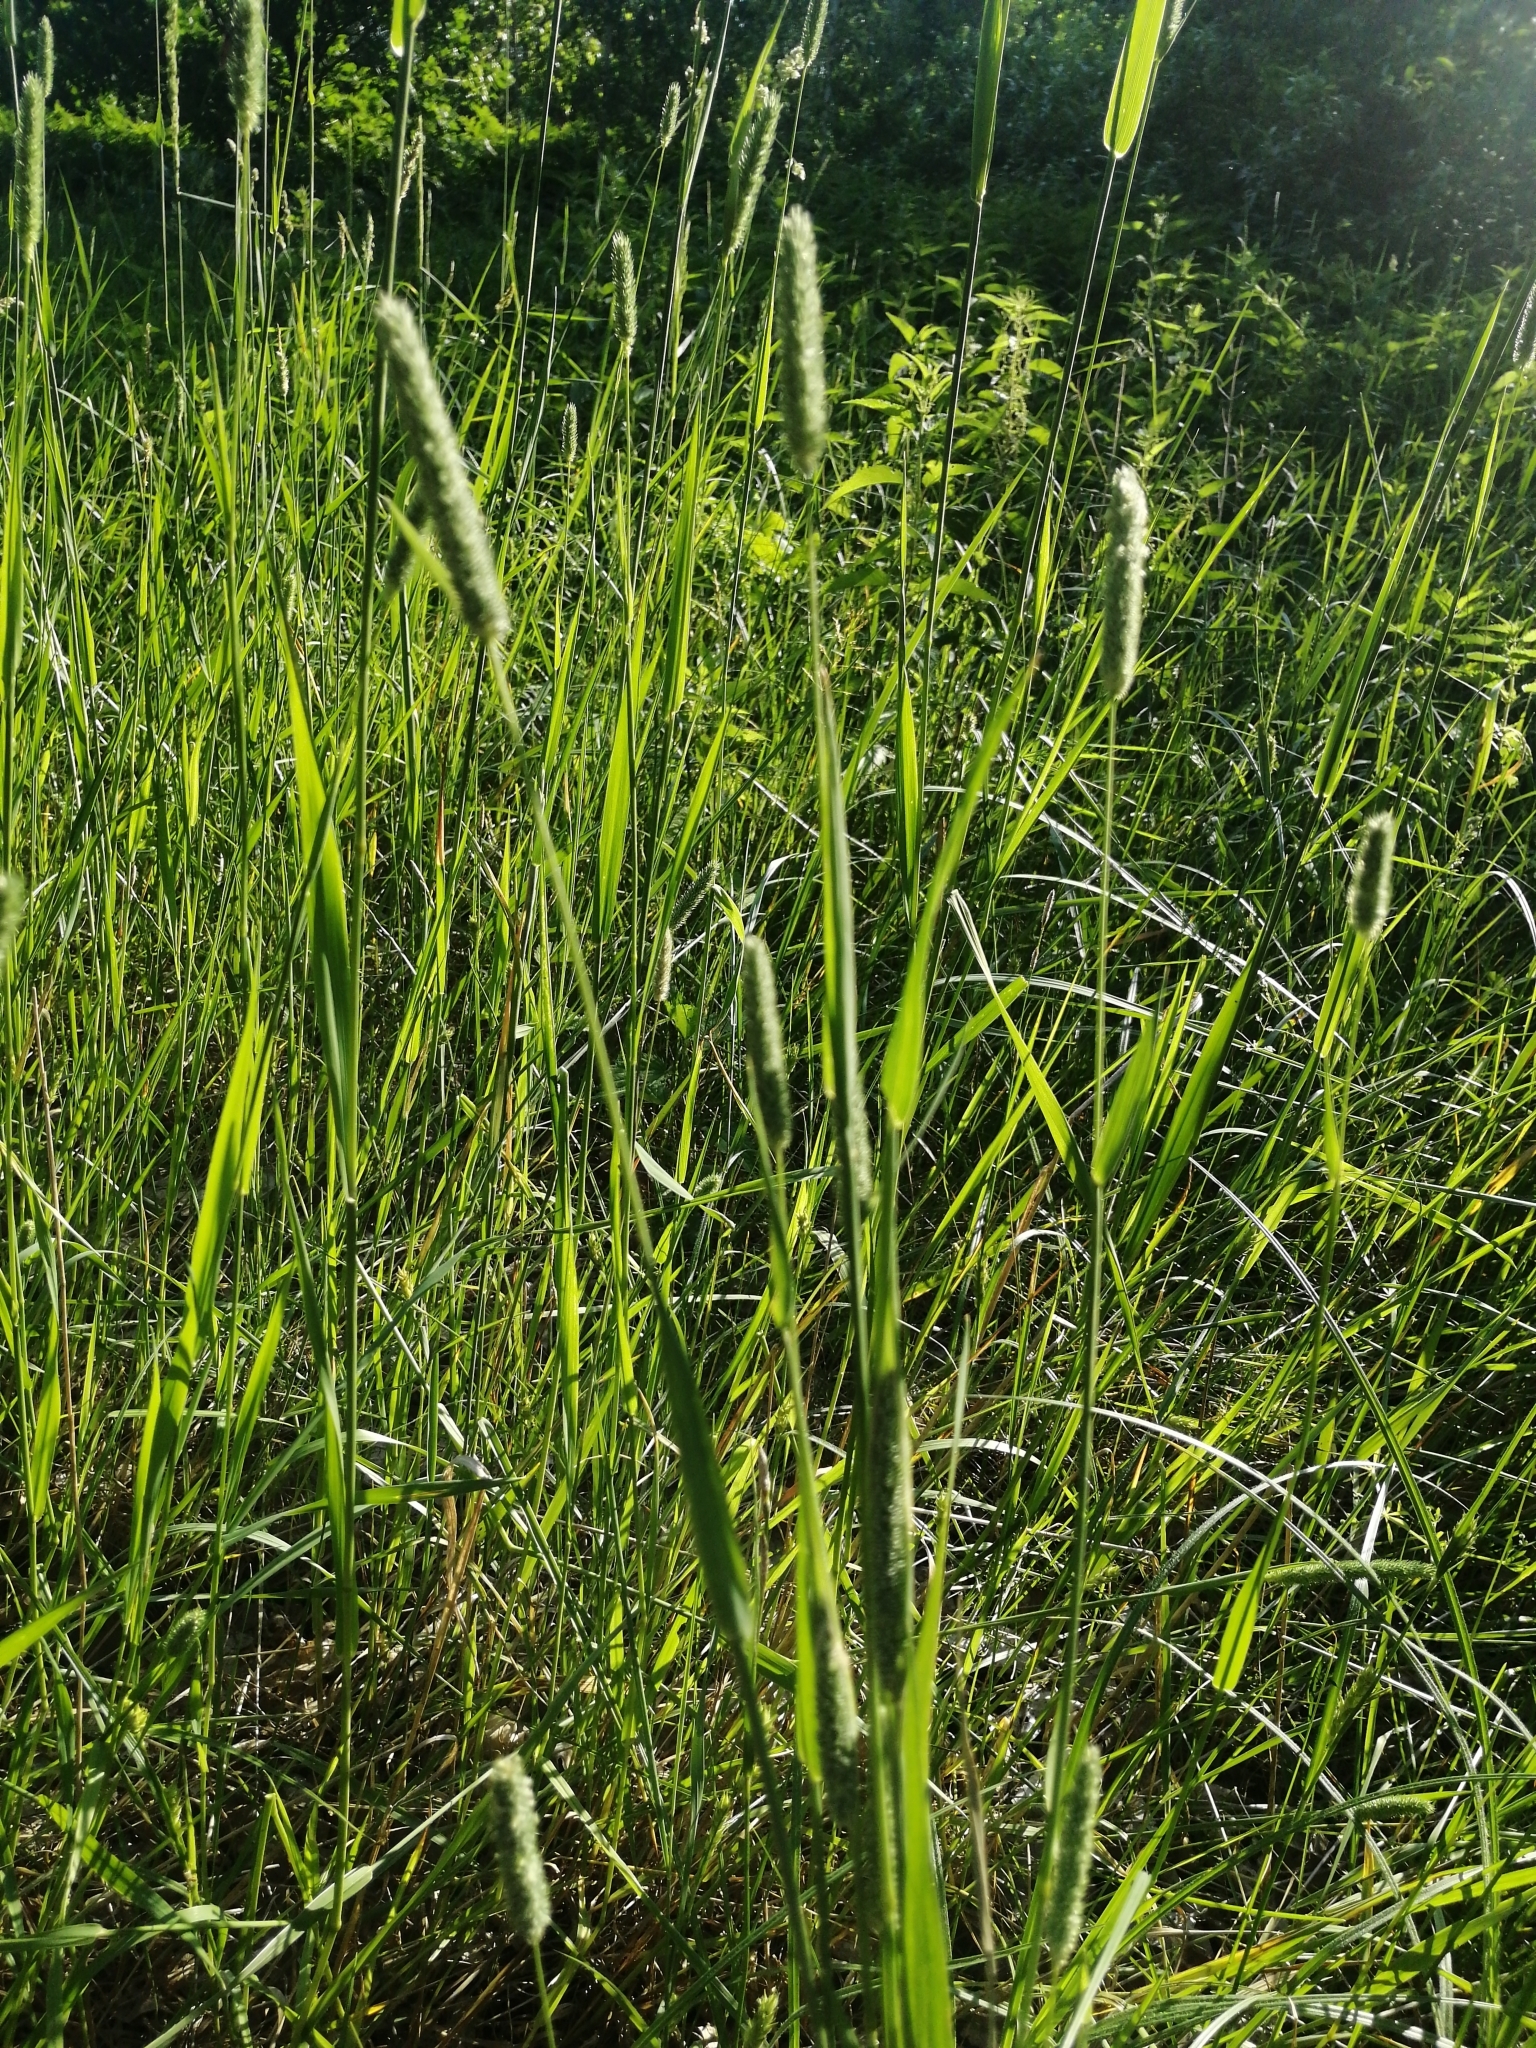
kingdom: Plantae
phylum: Tracheophyta
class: Liliopsida
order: Poales
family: Poaceae
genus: Phleum
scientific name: Phleum pratense
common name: Timothy grass
